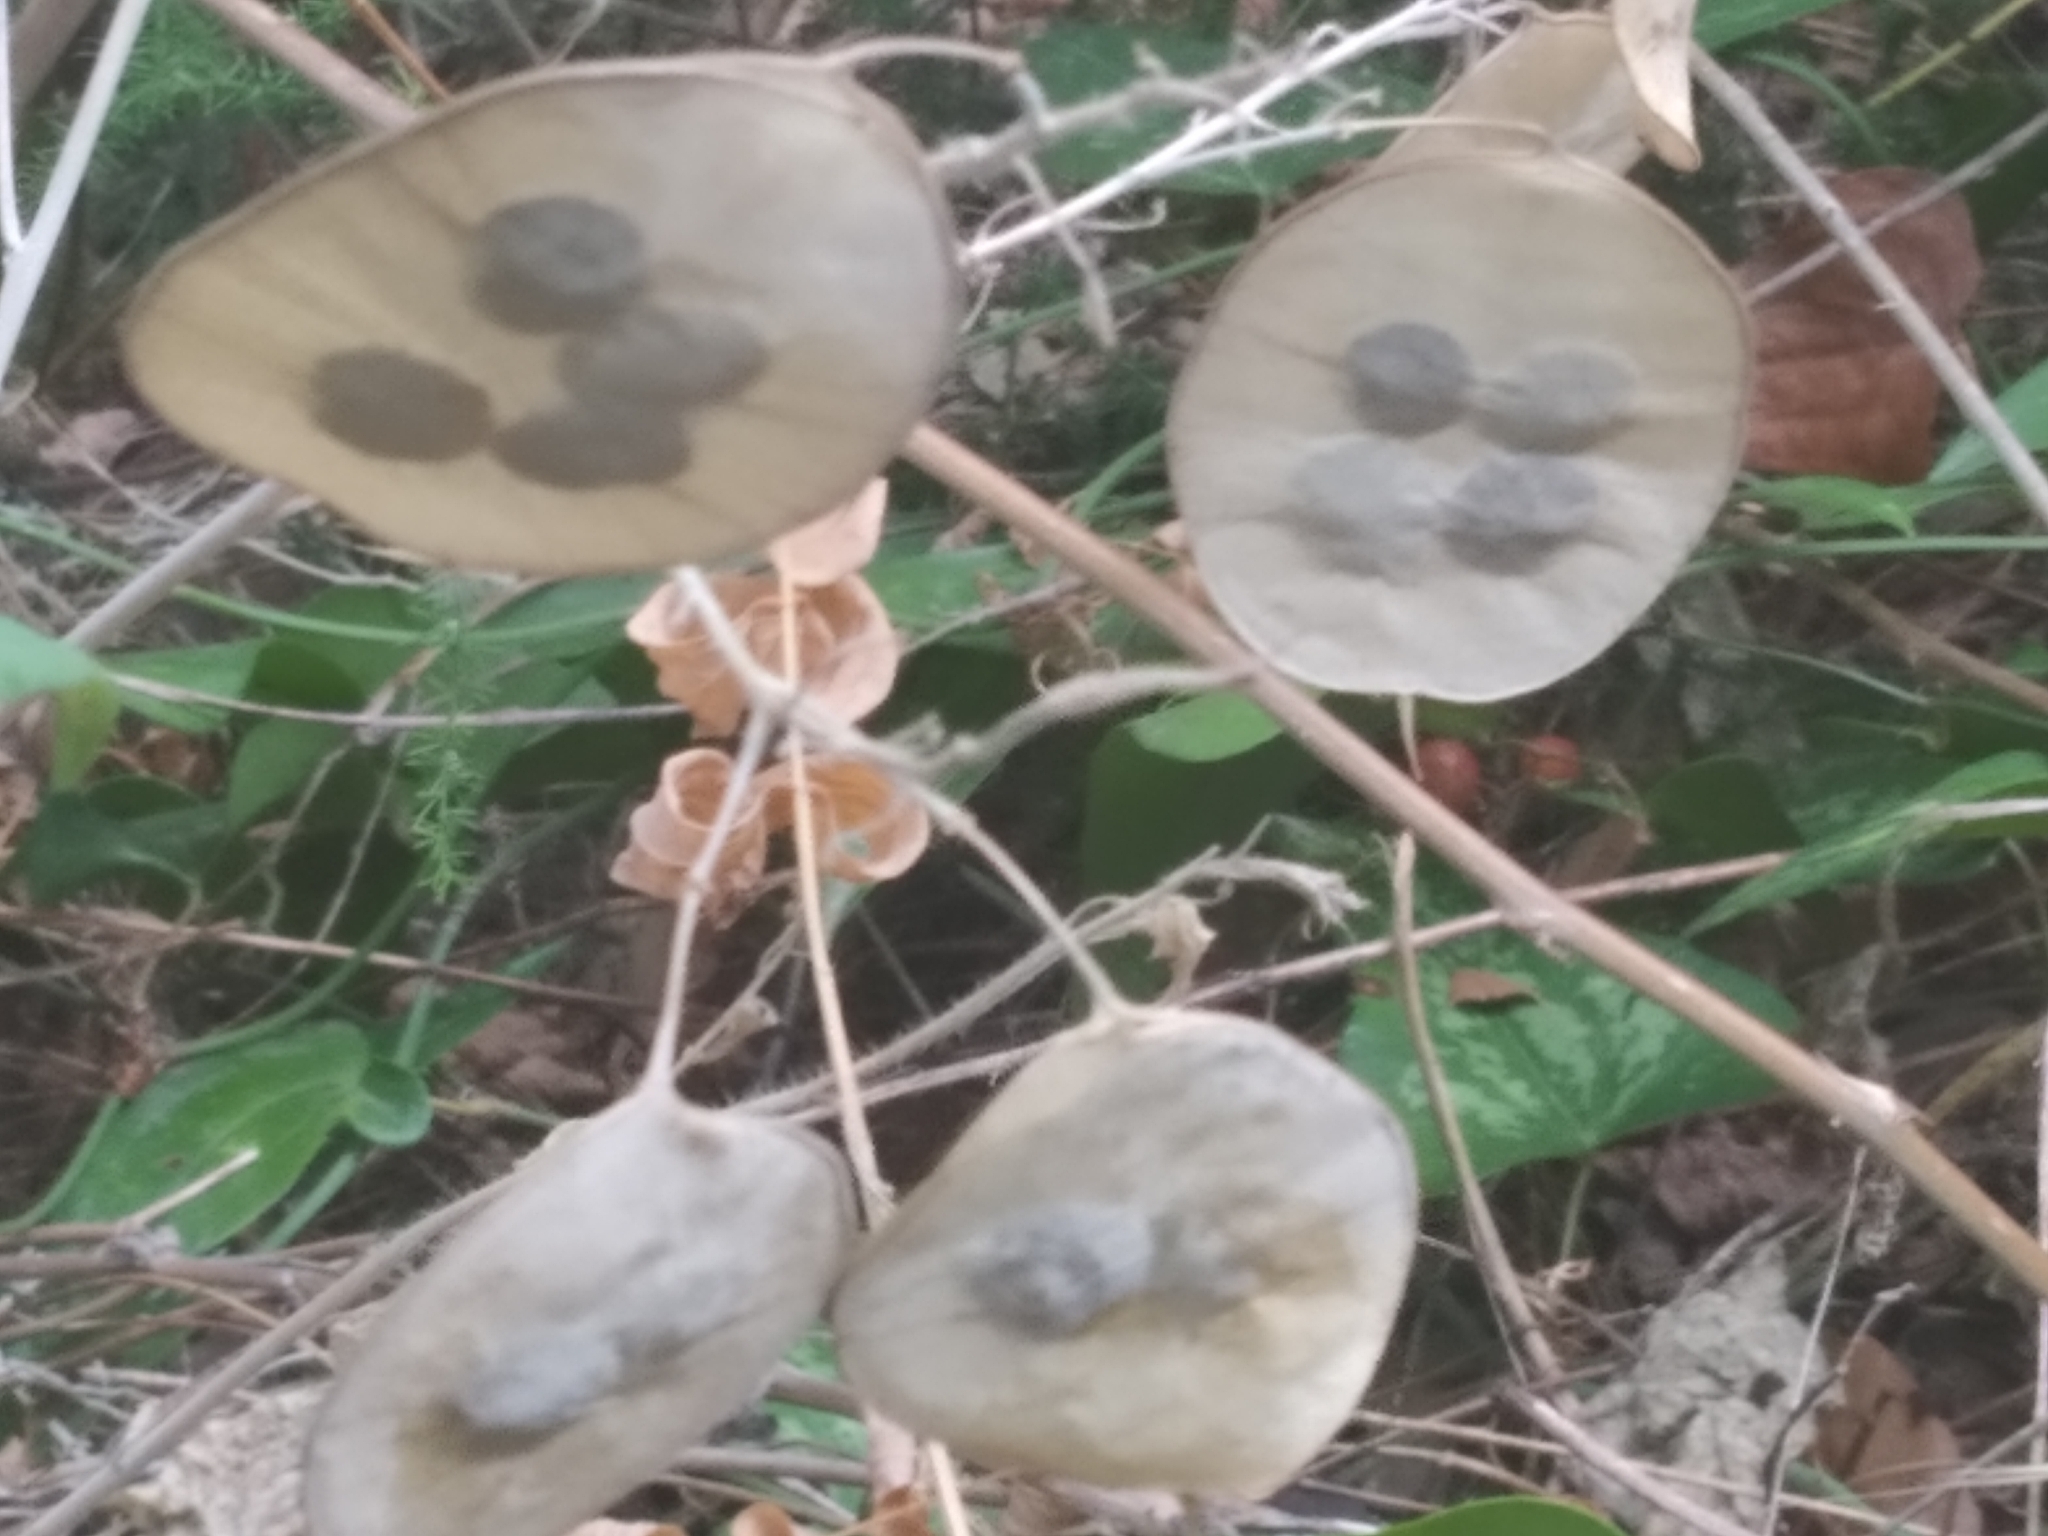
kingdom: Plantae
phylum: Tracheophyta
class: Magnoliopsida
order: Brassicales
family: Brassicaceae
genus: Lunaria
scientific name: Lunaria annua
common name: Honesty
